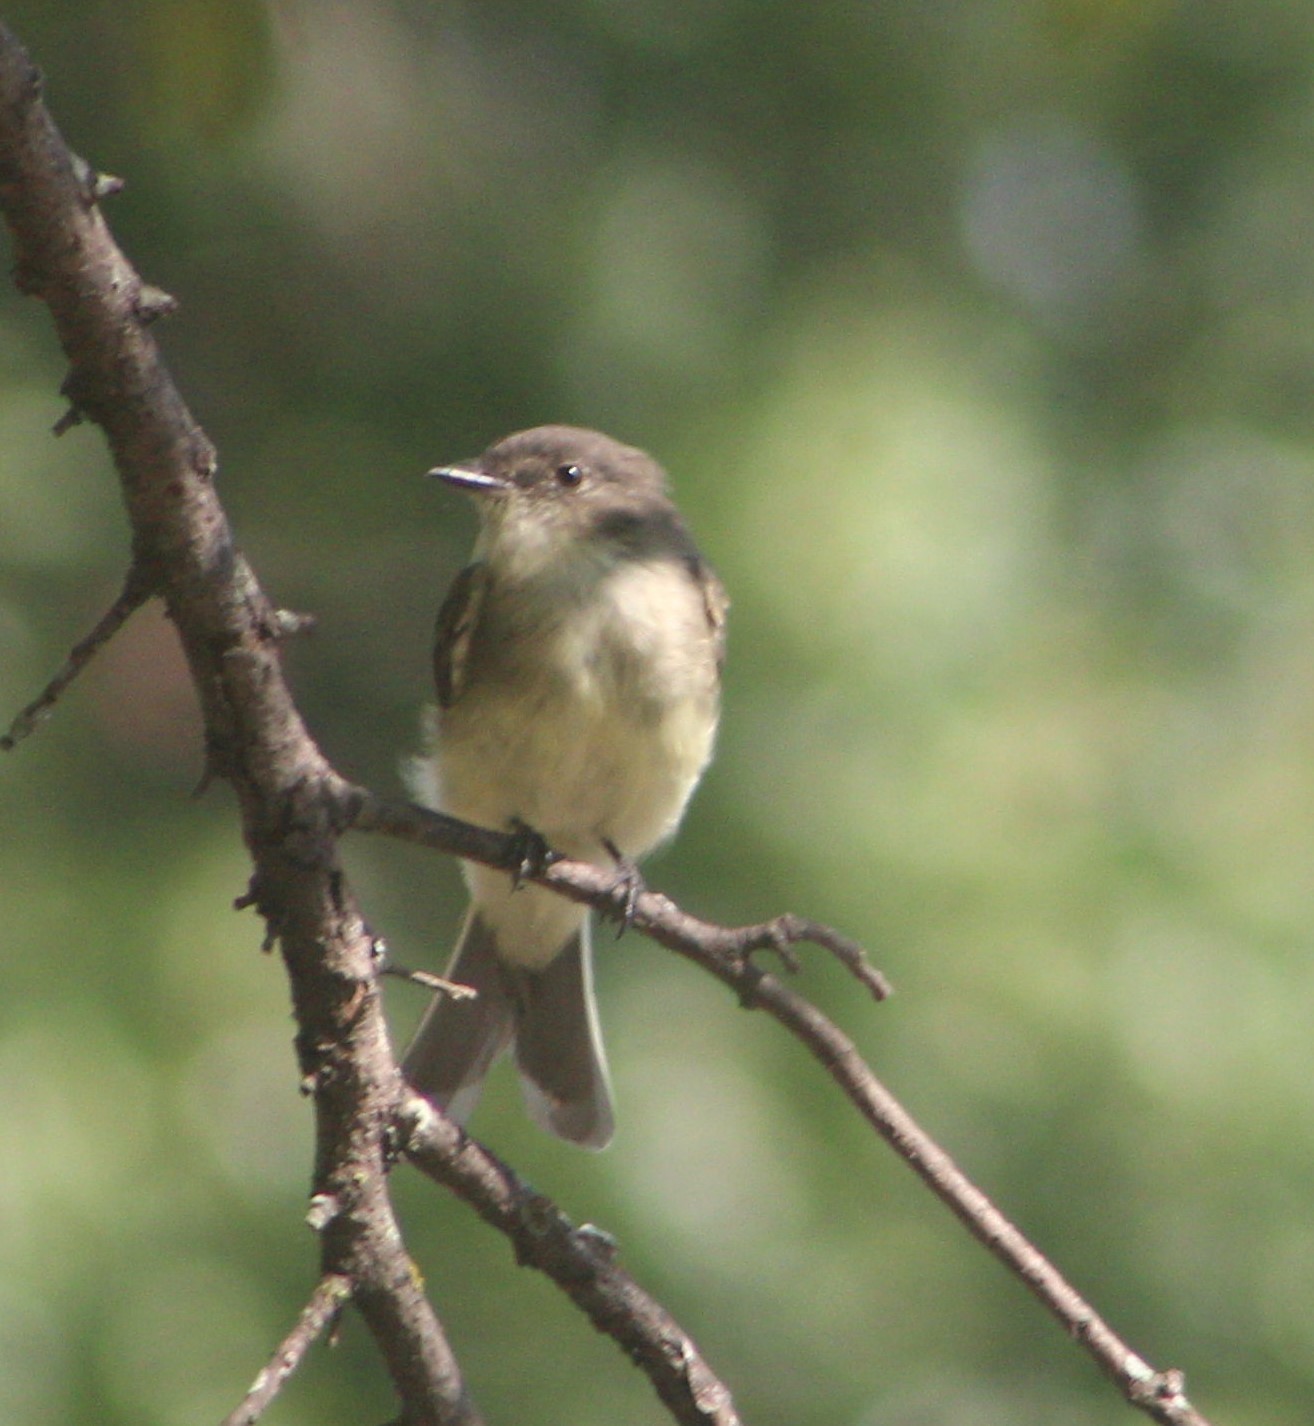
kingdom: Animalia
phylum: Chordata
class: Aves
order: Passeriformes
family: Tyrannidae
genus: Sayornis
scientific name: Sayornis phoebe
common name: Eastern phoebe
